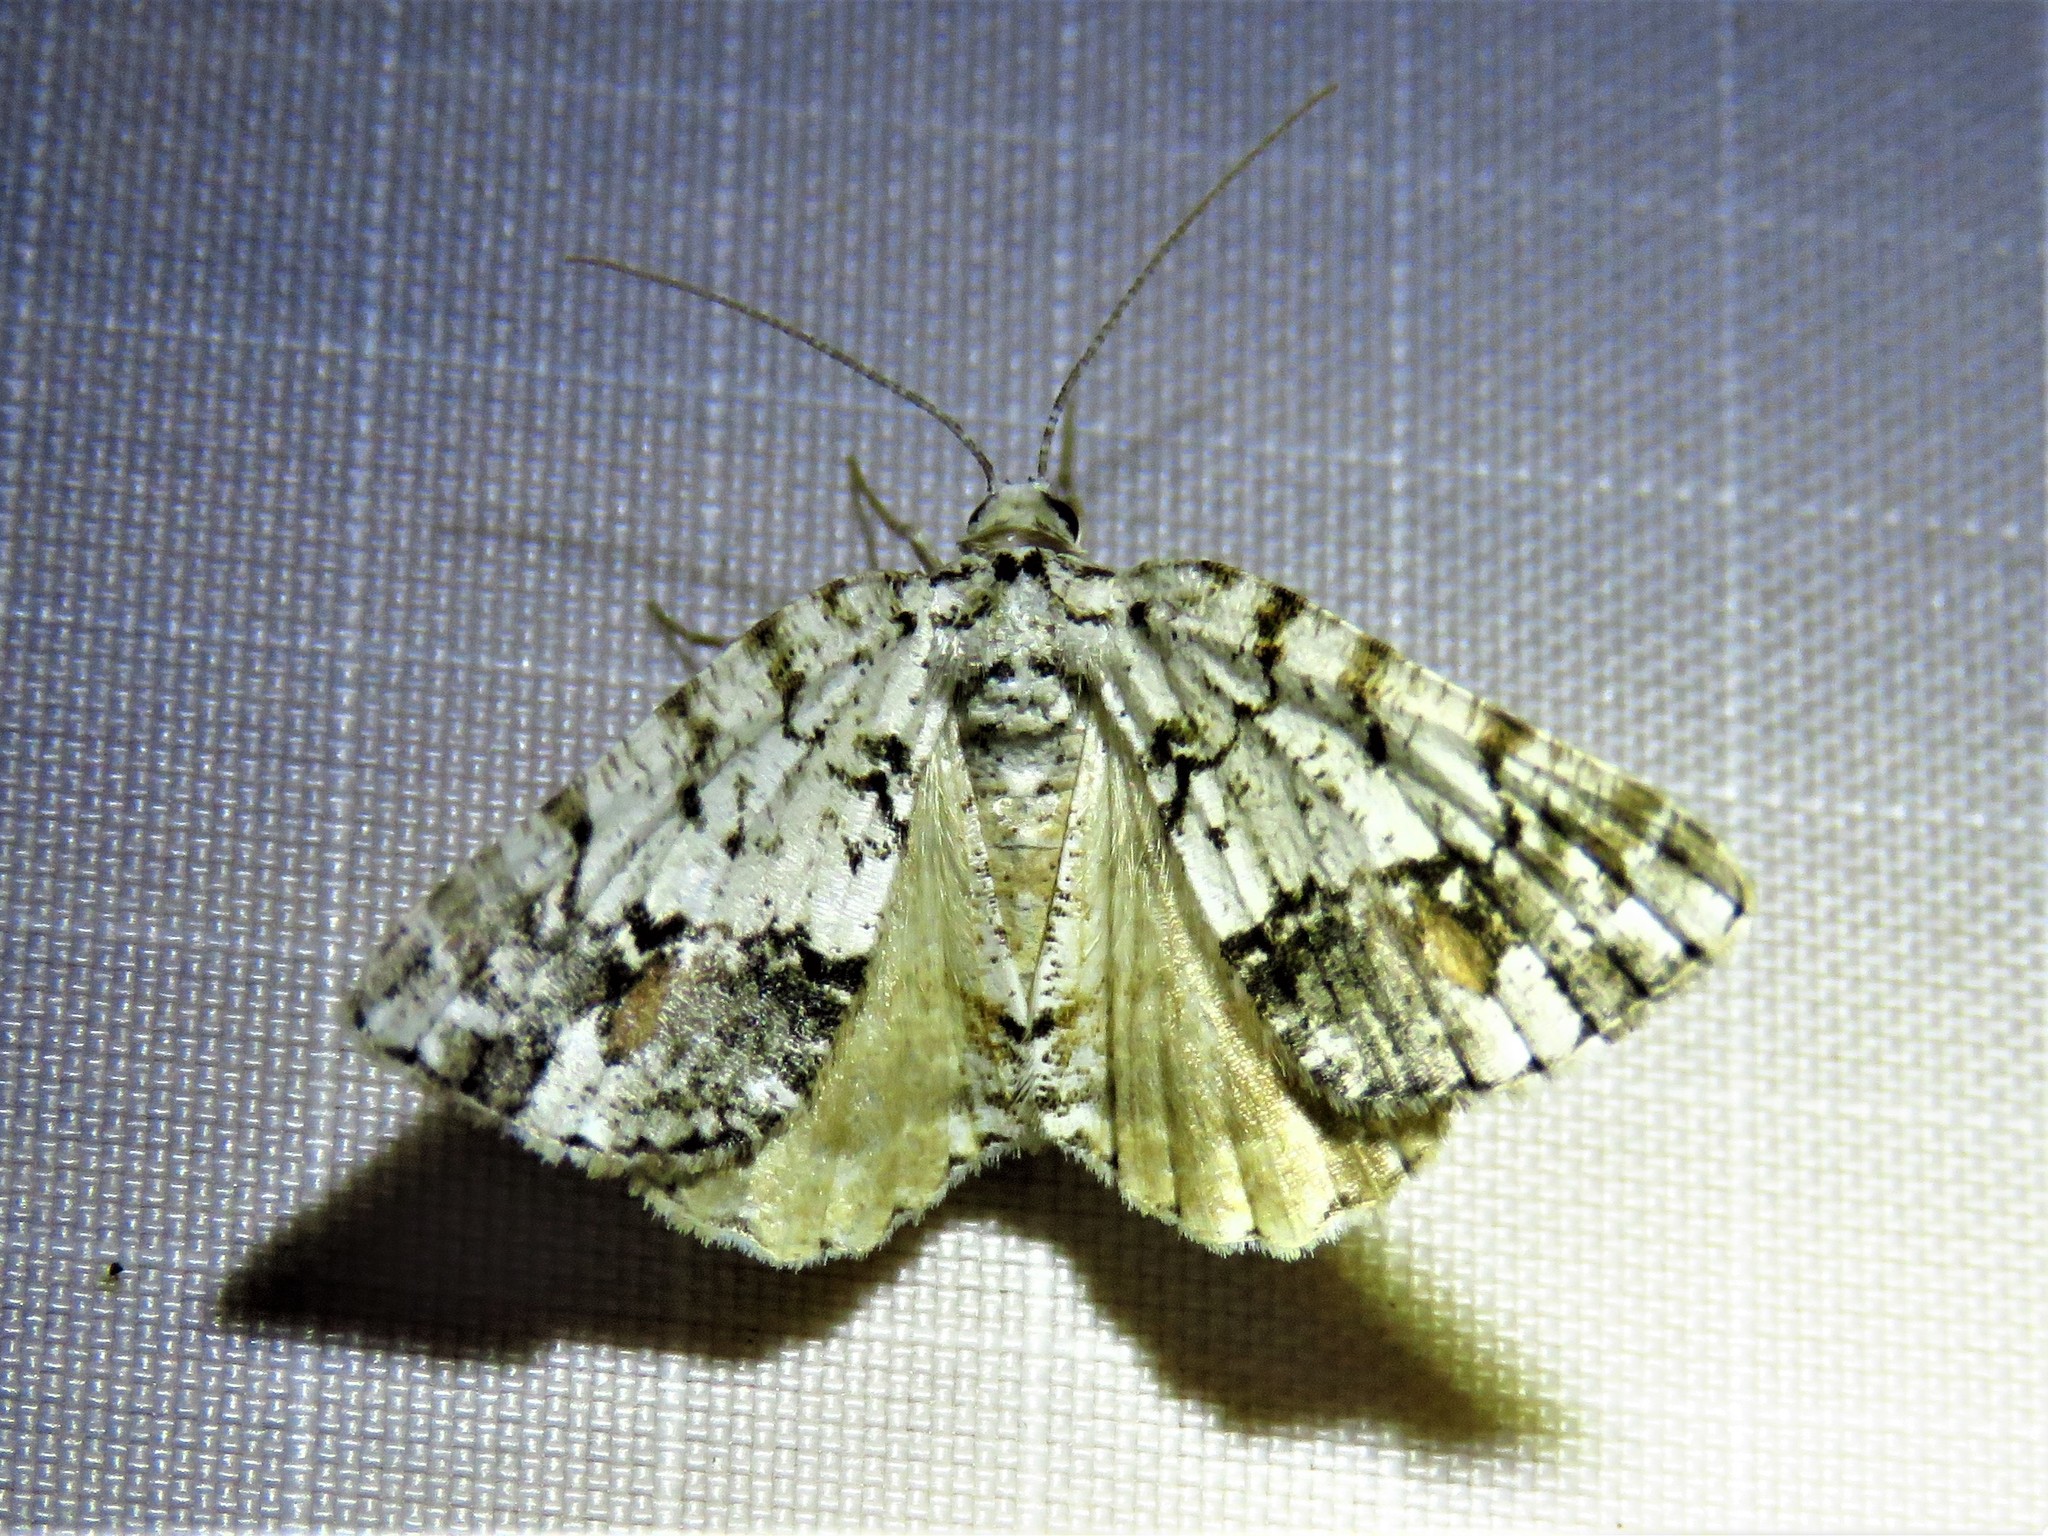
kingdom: Animalia
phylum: Arthropoda
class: Insecta
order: Lepidoptera
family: Geometridae
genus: Macaria
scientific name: Macaria graphidaria
